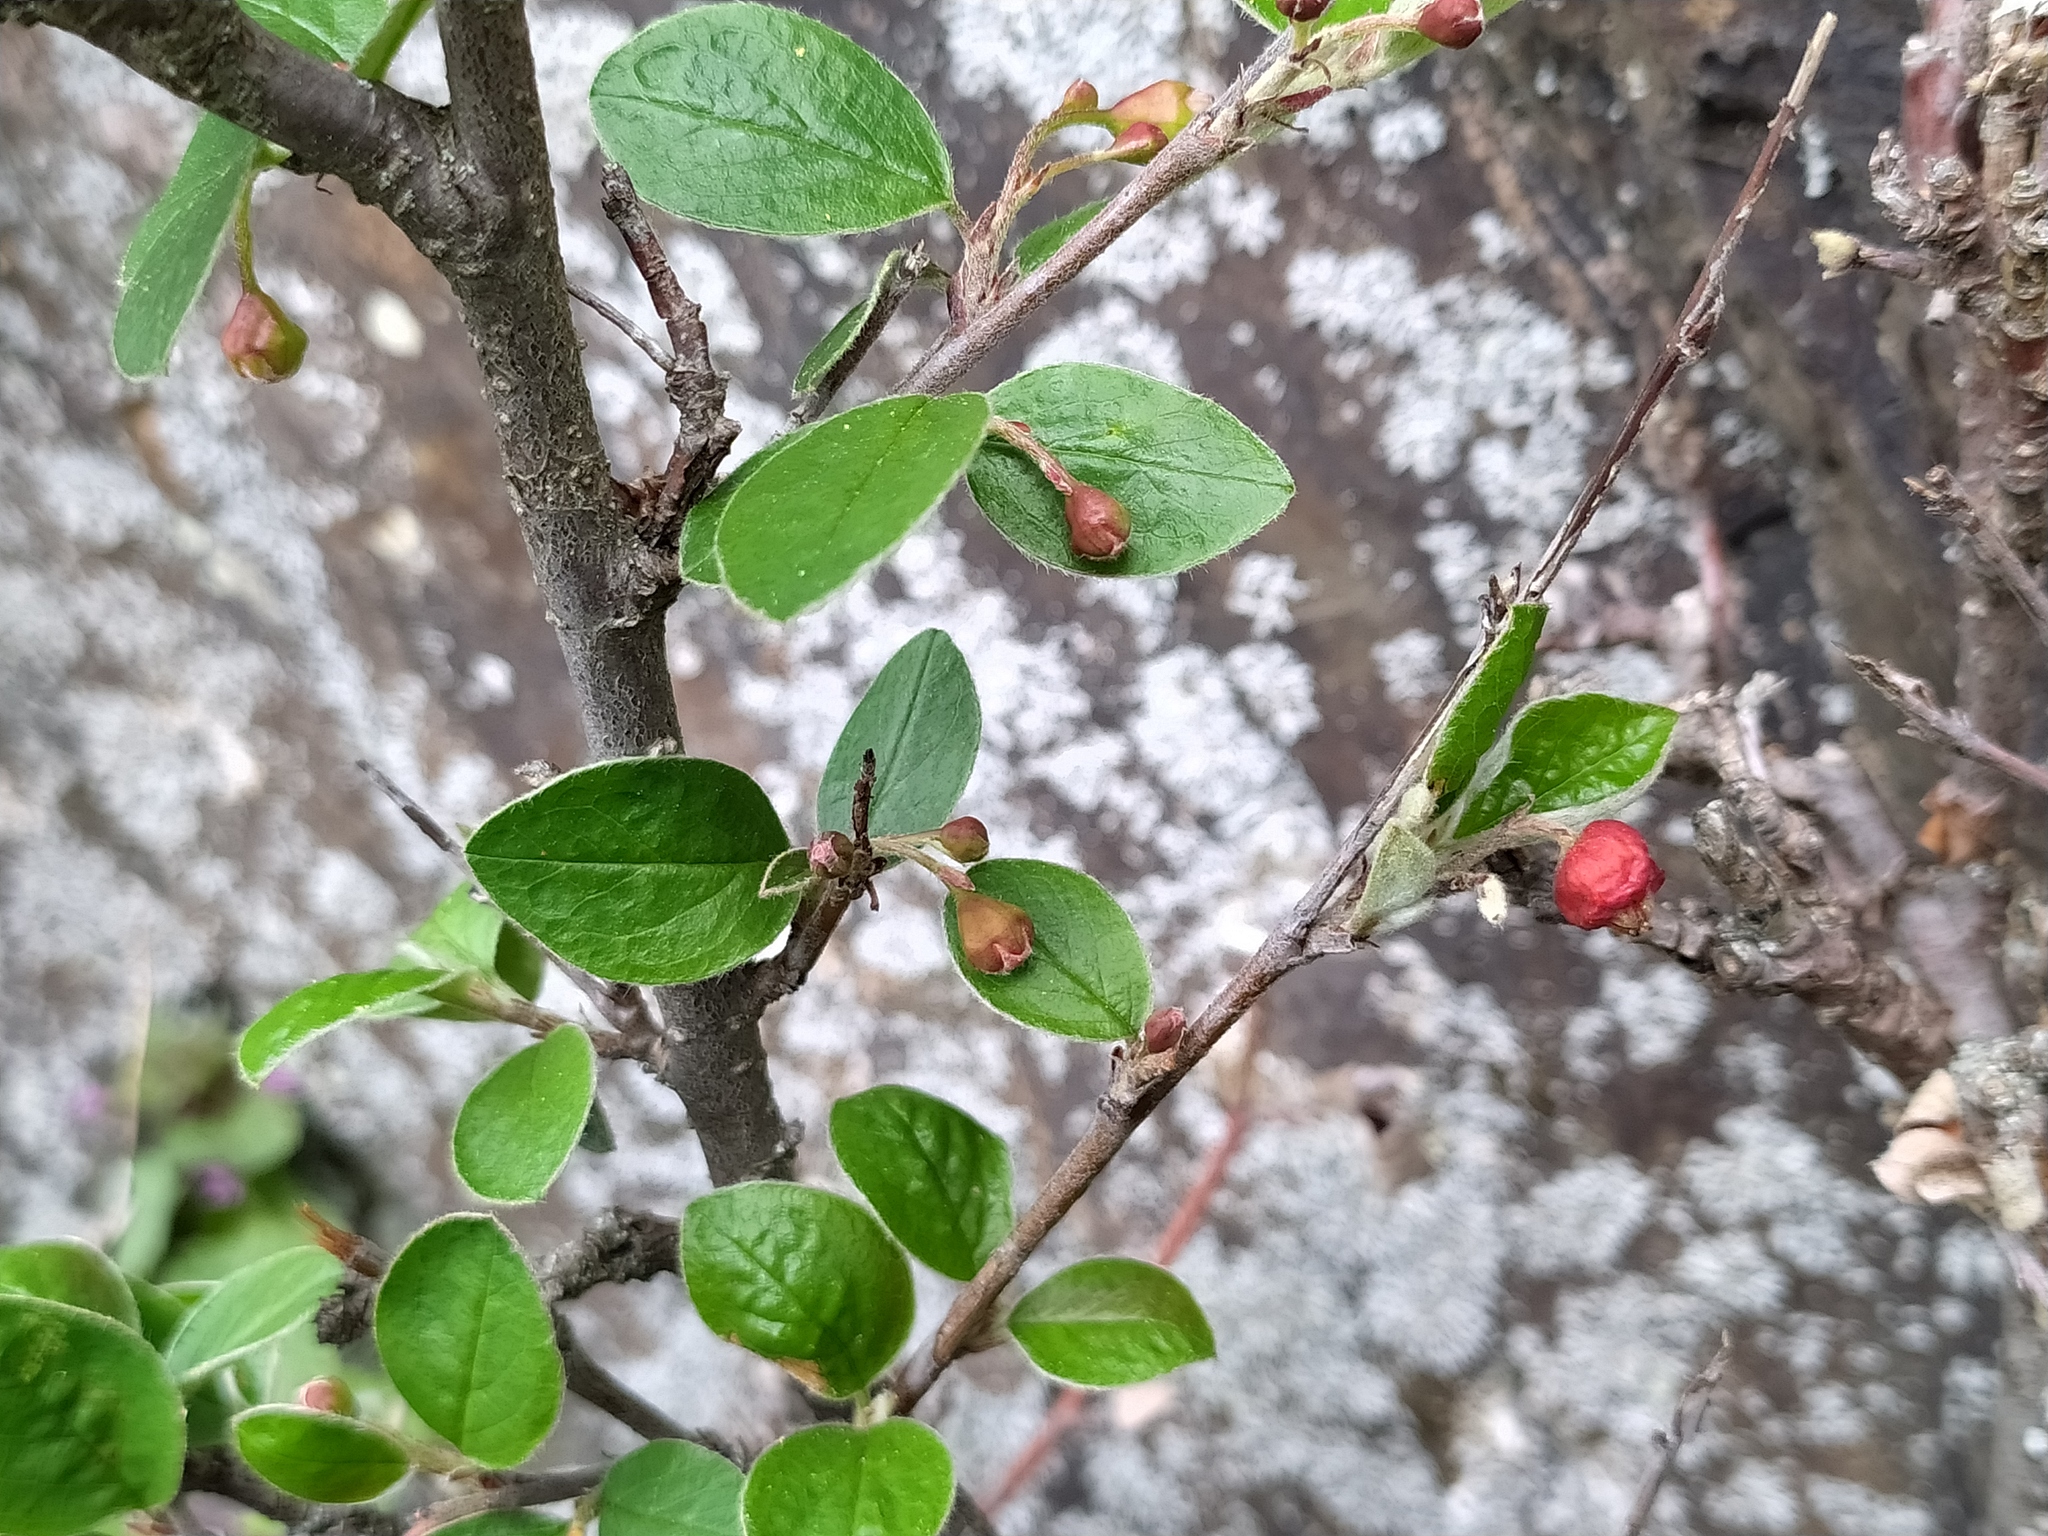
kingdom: Plantae
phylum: Tracheophyta
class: Magnoliopsida
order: Rosales
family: Rosaceae
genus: Cotoneaster
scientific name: Cotoneaster integerrimus
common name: Wild cotoneaster
